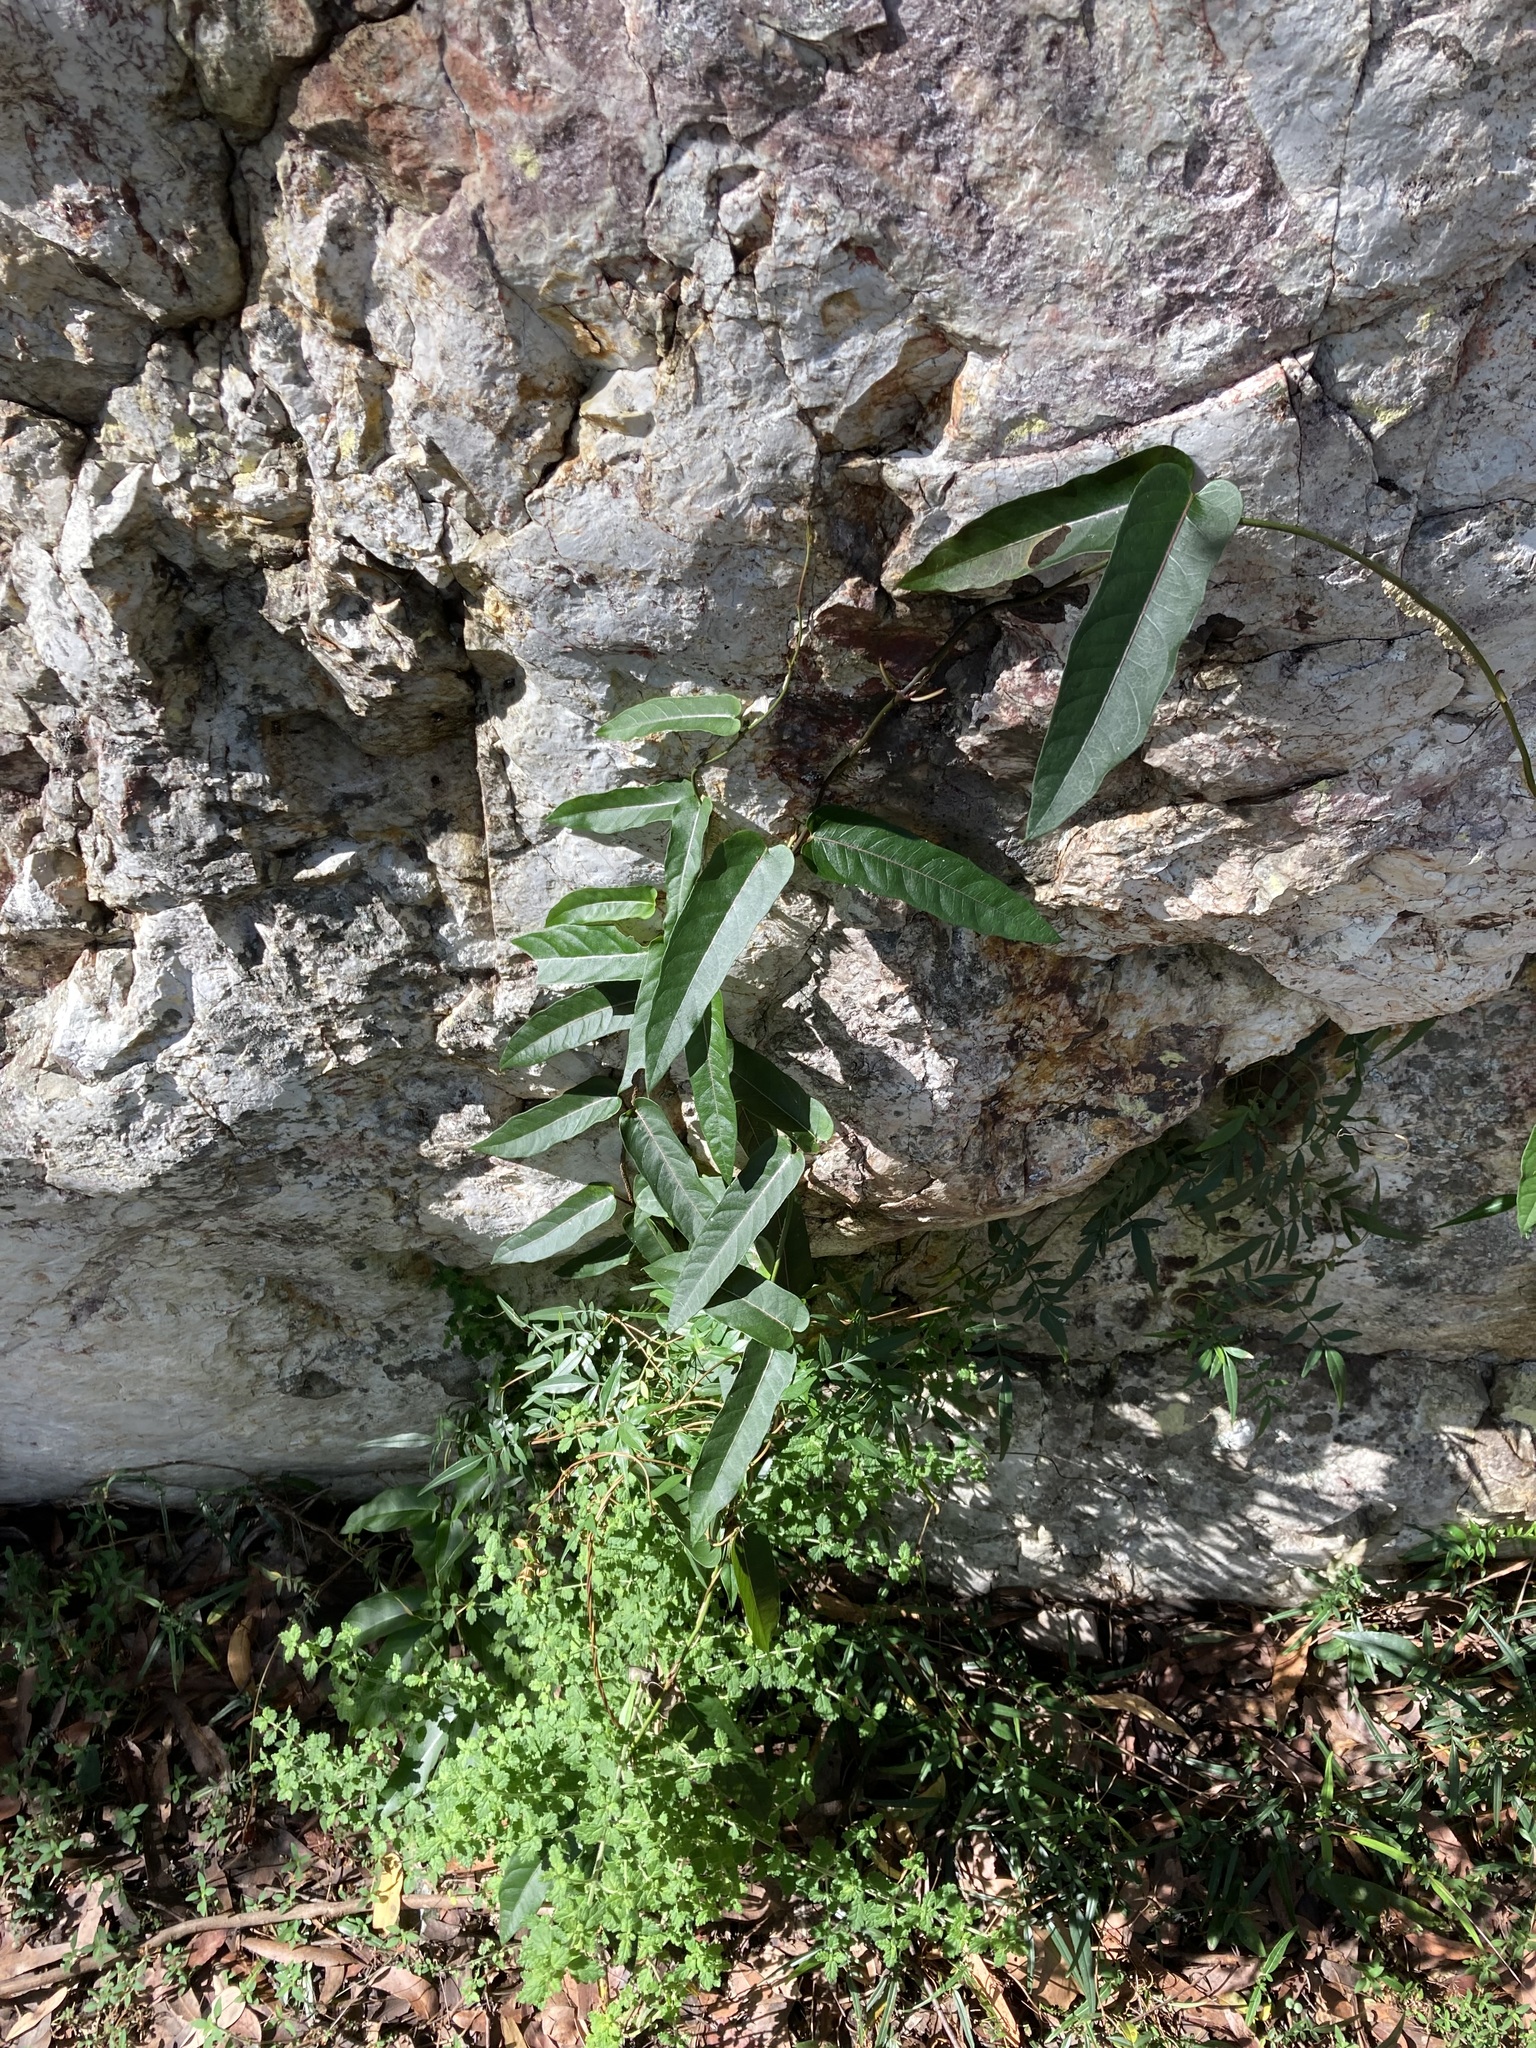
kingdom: Plantae
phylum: Tracheophyta
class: Magnoliopsida
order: Gentianales
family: Apocynaceae
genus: Parsonsia
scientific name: Parsonsia straminea
